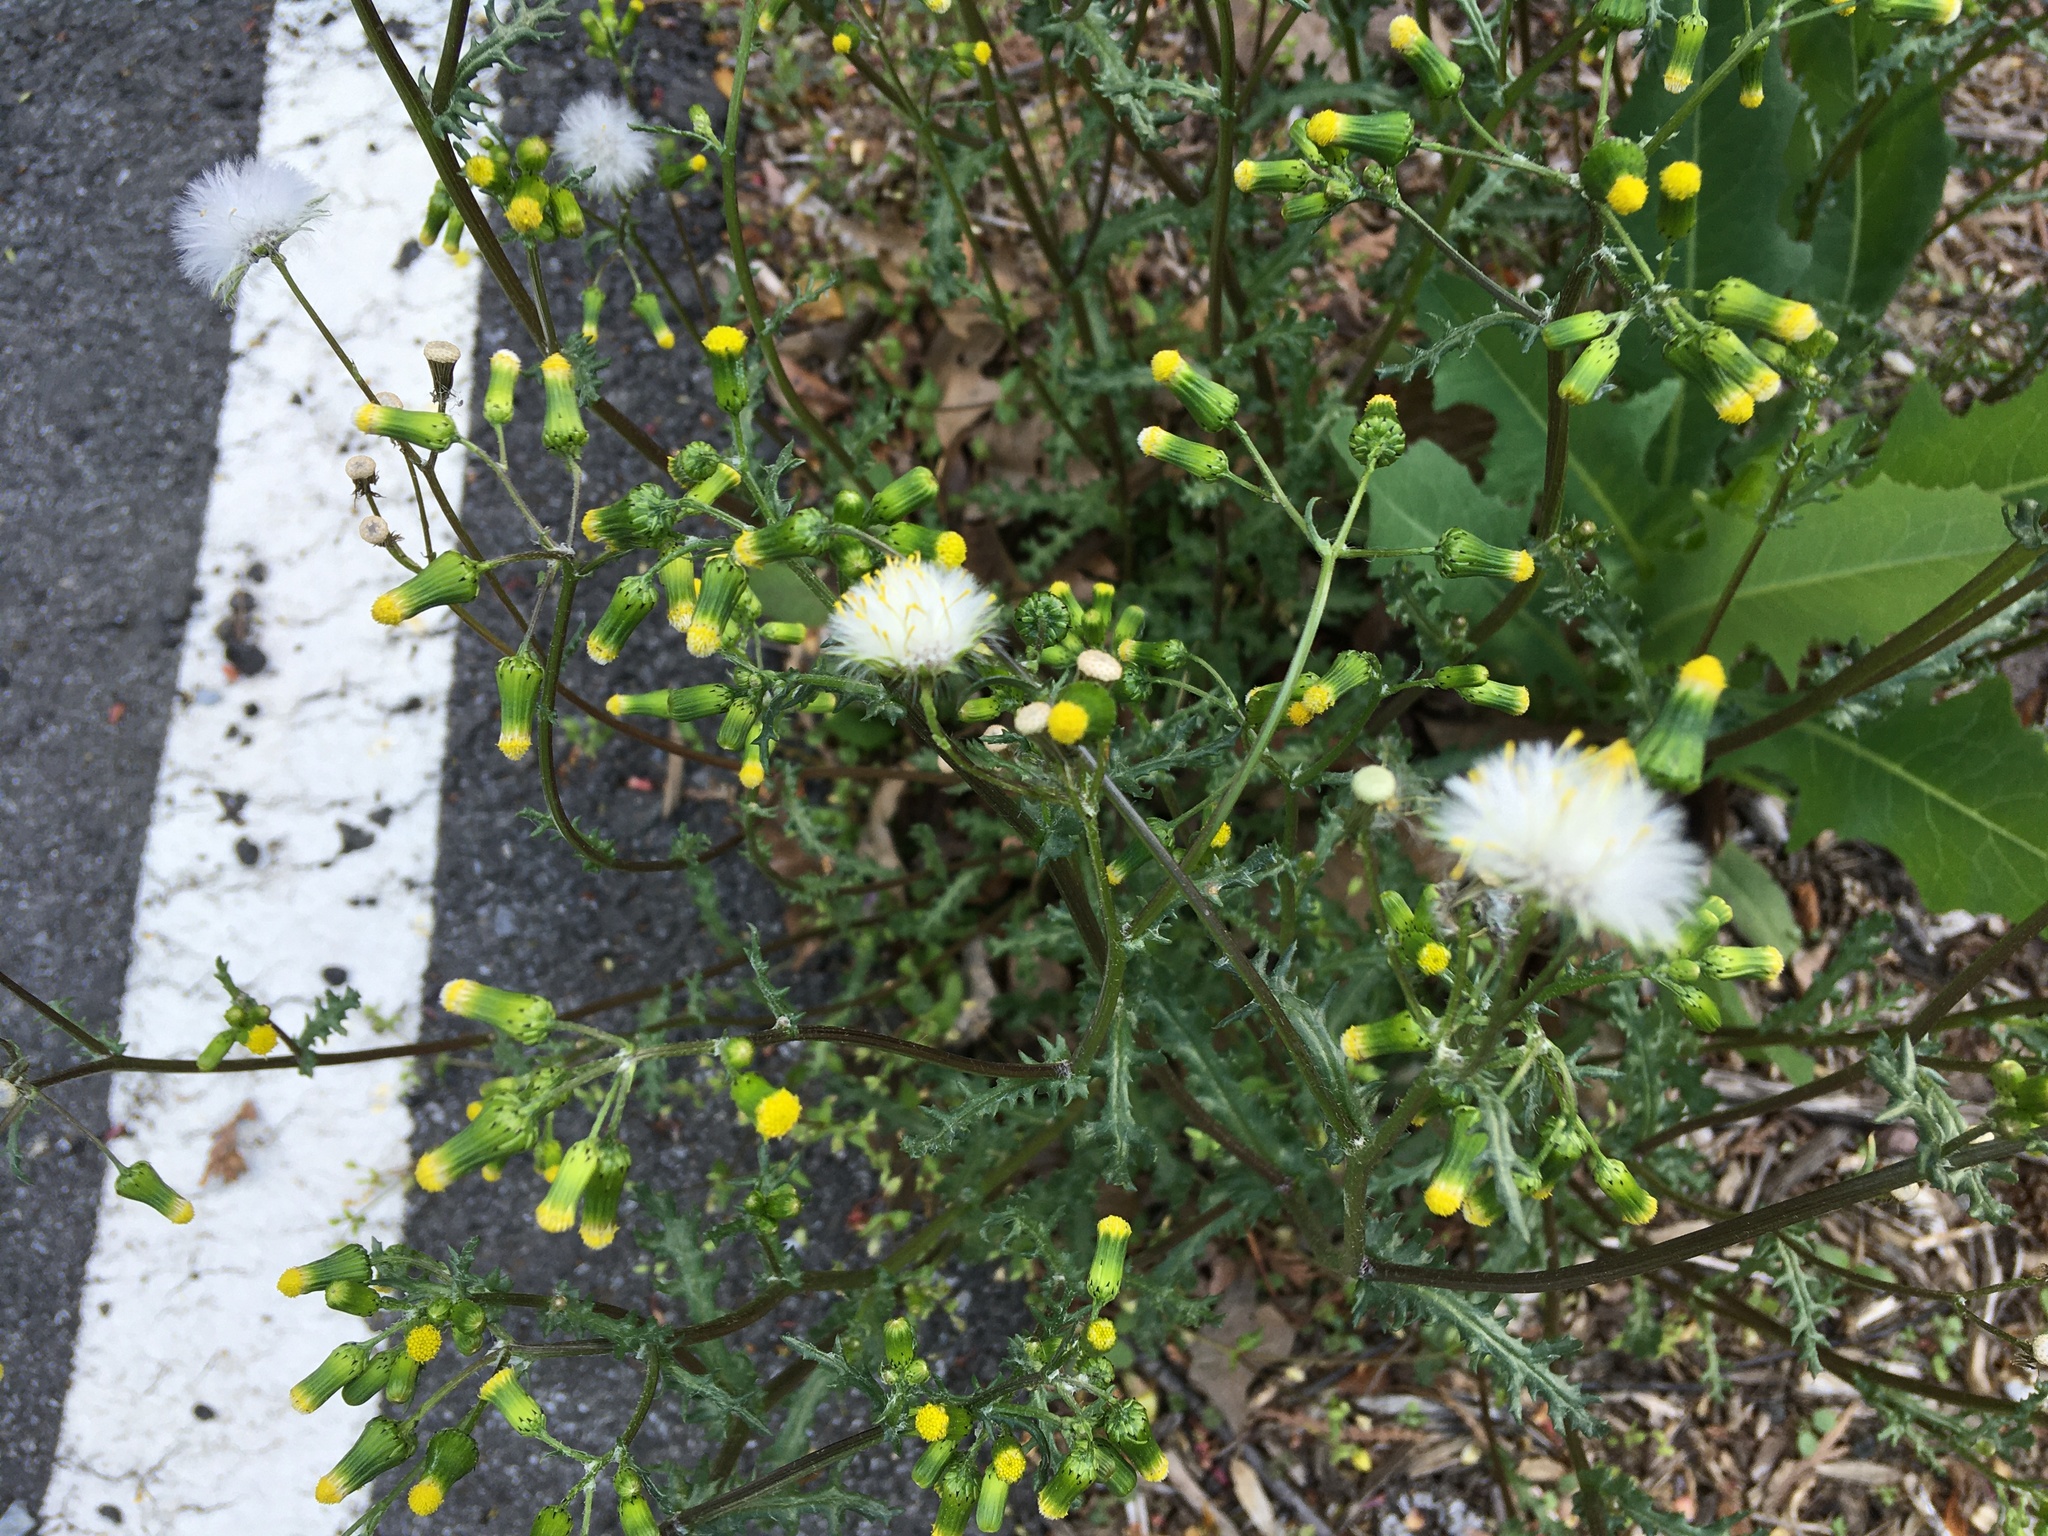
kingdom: Plantae
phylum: Tracheophyta
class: Magnoliopsida
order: Asterales
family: Asteraceae
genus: Senecio
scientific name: Senecio vulgaris
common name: Old-man-in-the-spring
